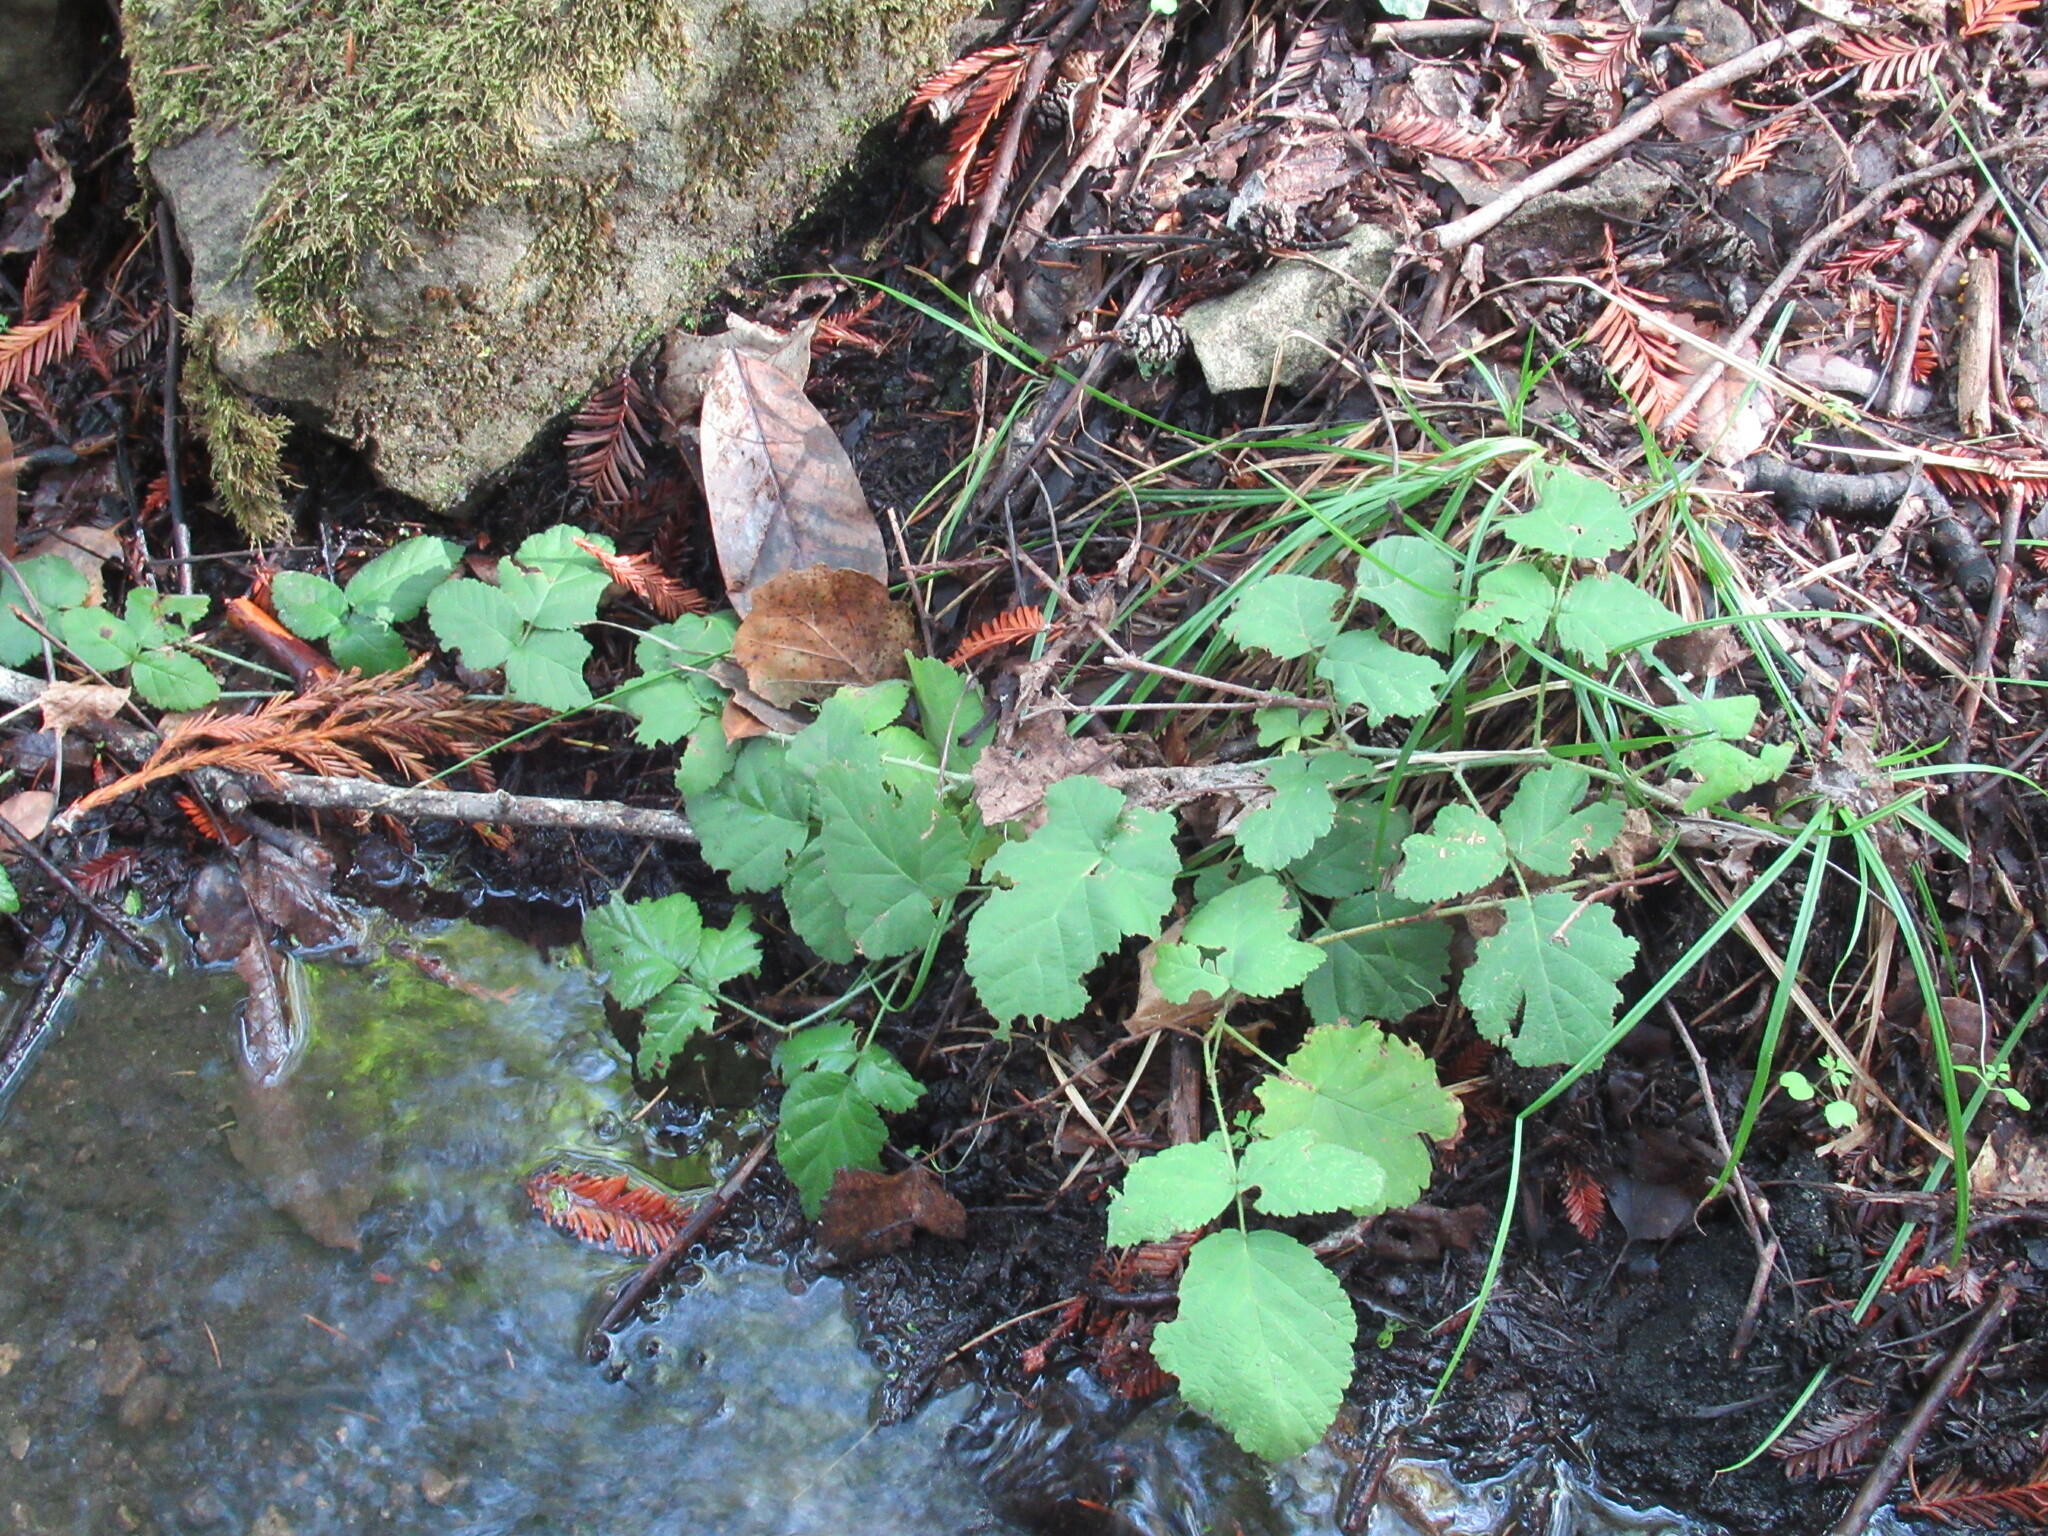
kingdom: Plantae
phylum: Tracheophyta
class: Magnoliopsida
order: Rosales
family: Rosaceae
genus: Rubus
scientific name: Rubus ursinus
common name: Pacific blackberry
